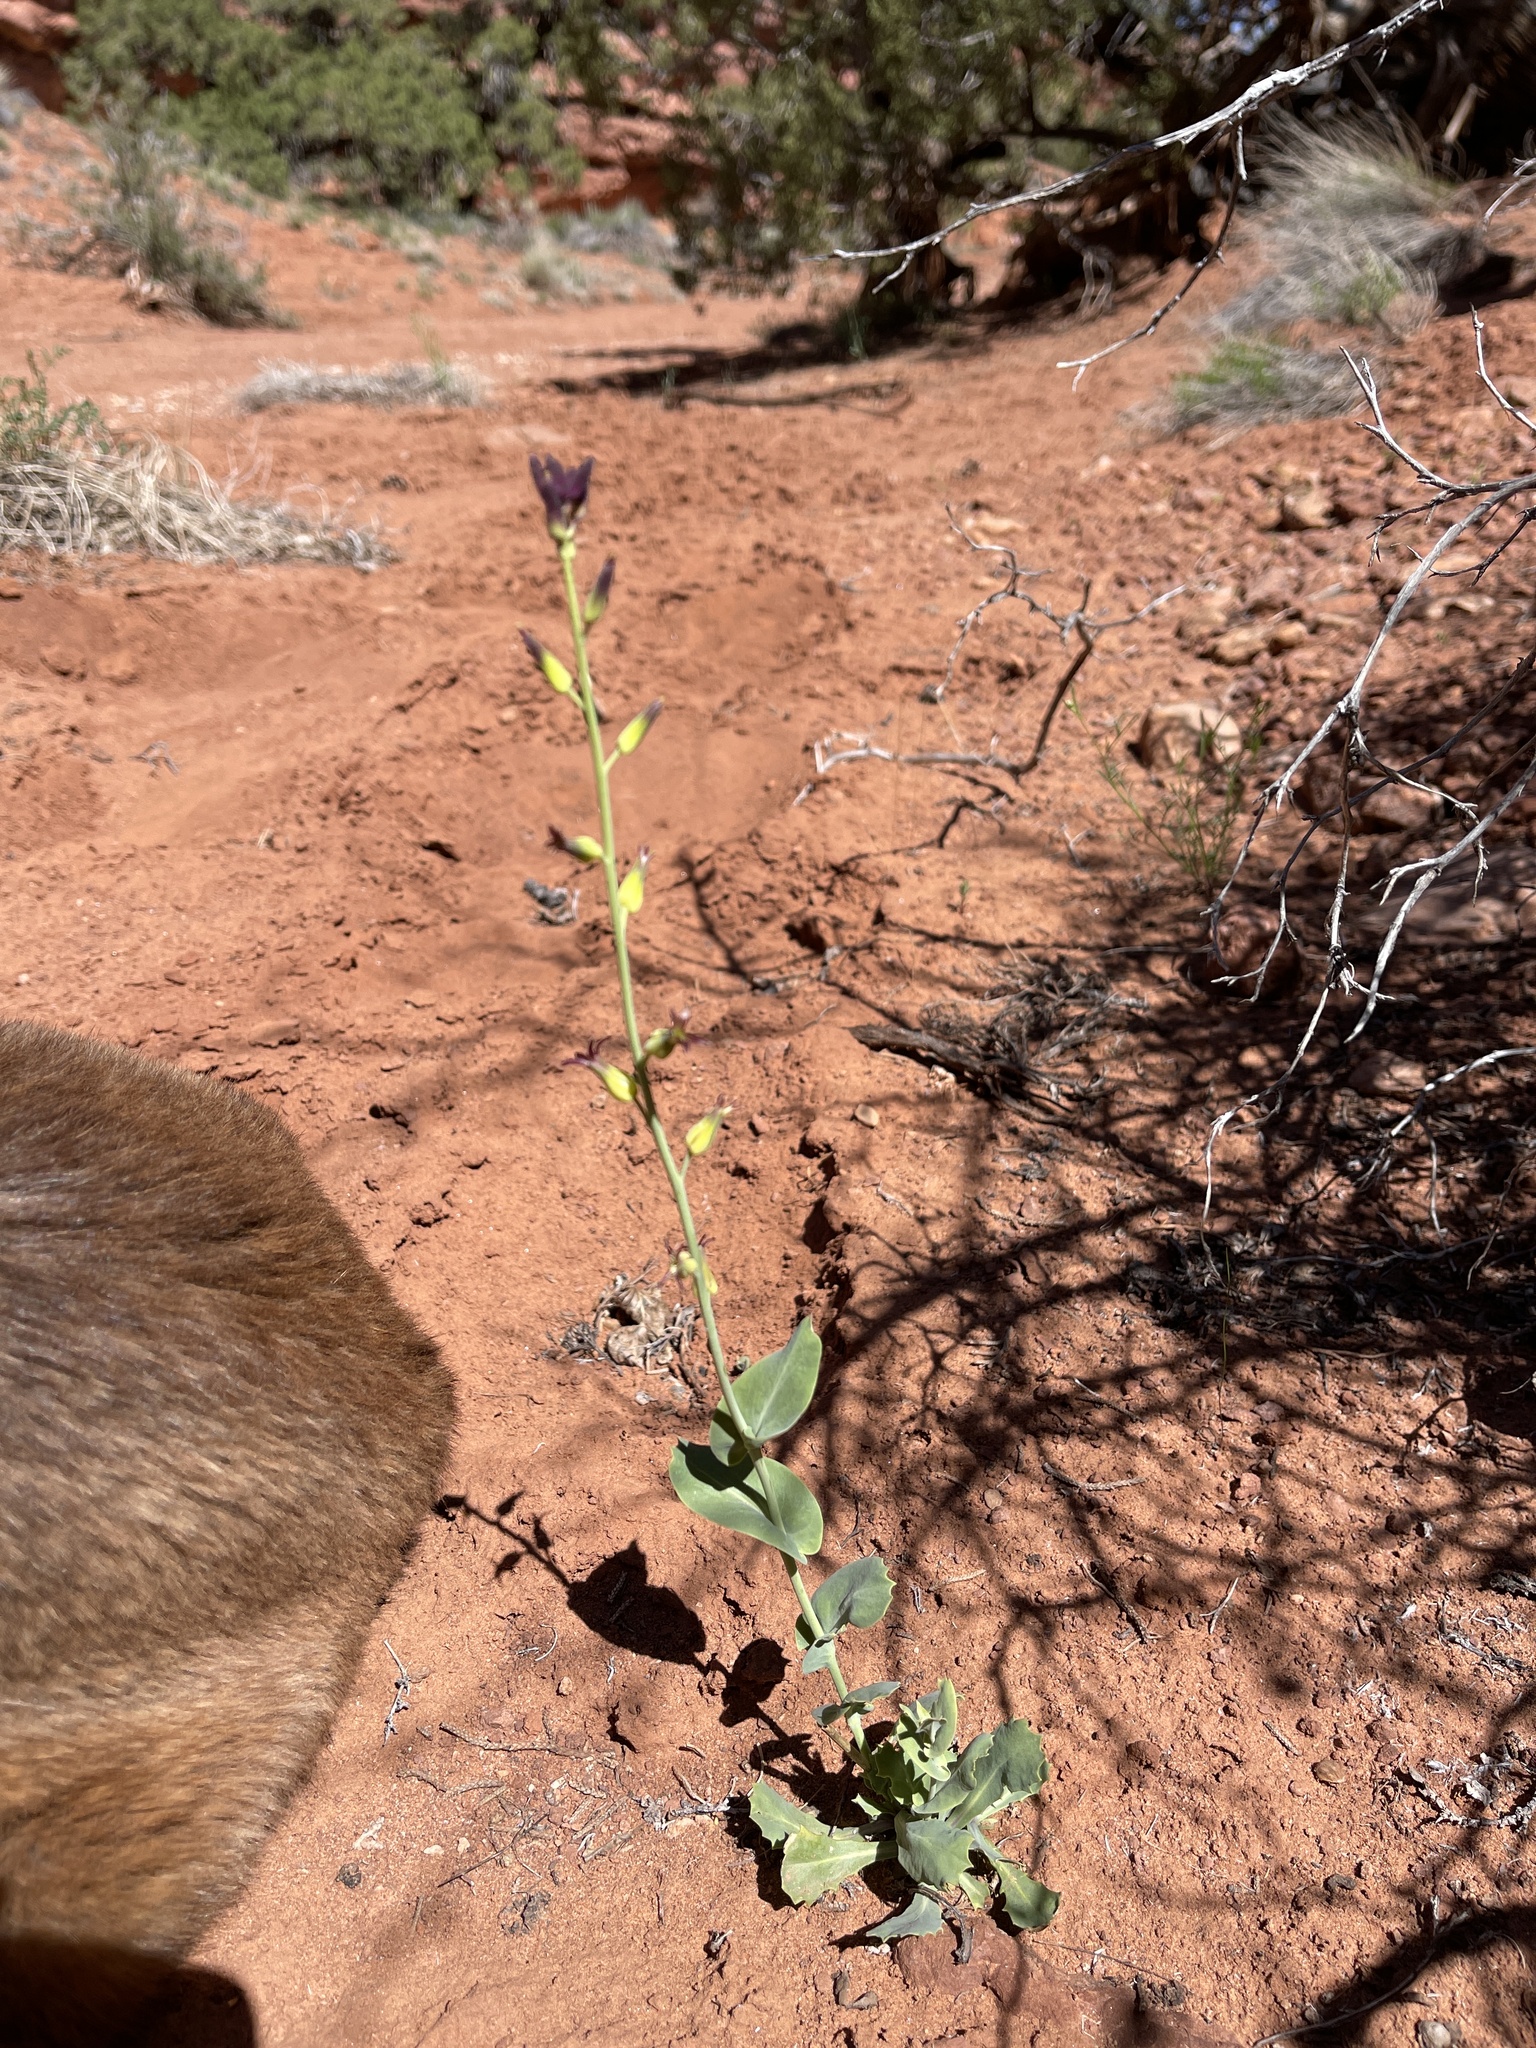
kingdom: Plantae
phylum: Tracheophyta
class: Magnoliopsida
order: Brassicales
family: Brassicaceae
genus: Streptanthus
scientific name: Streptanthus cordatus
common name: Heart-leaf jewel-flower
